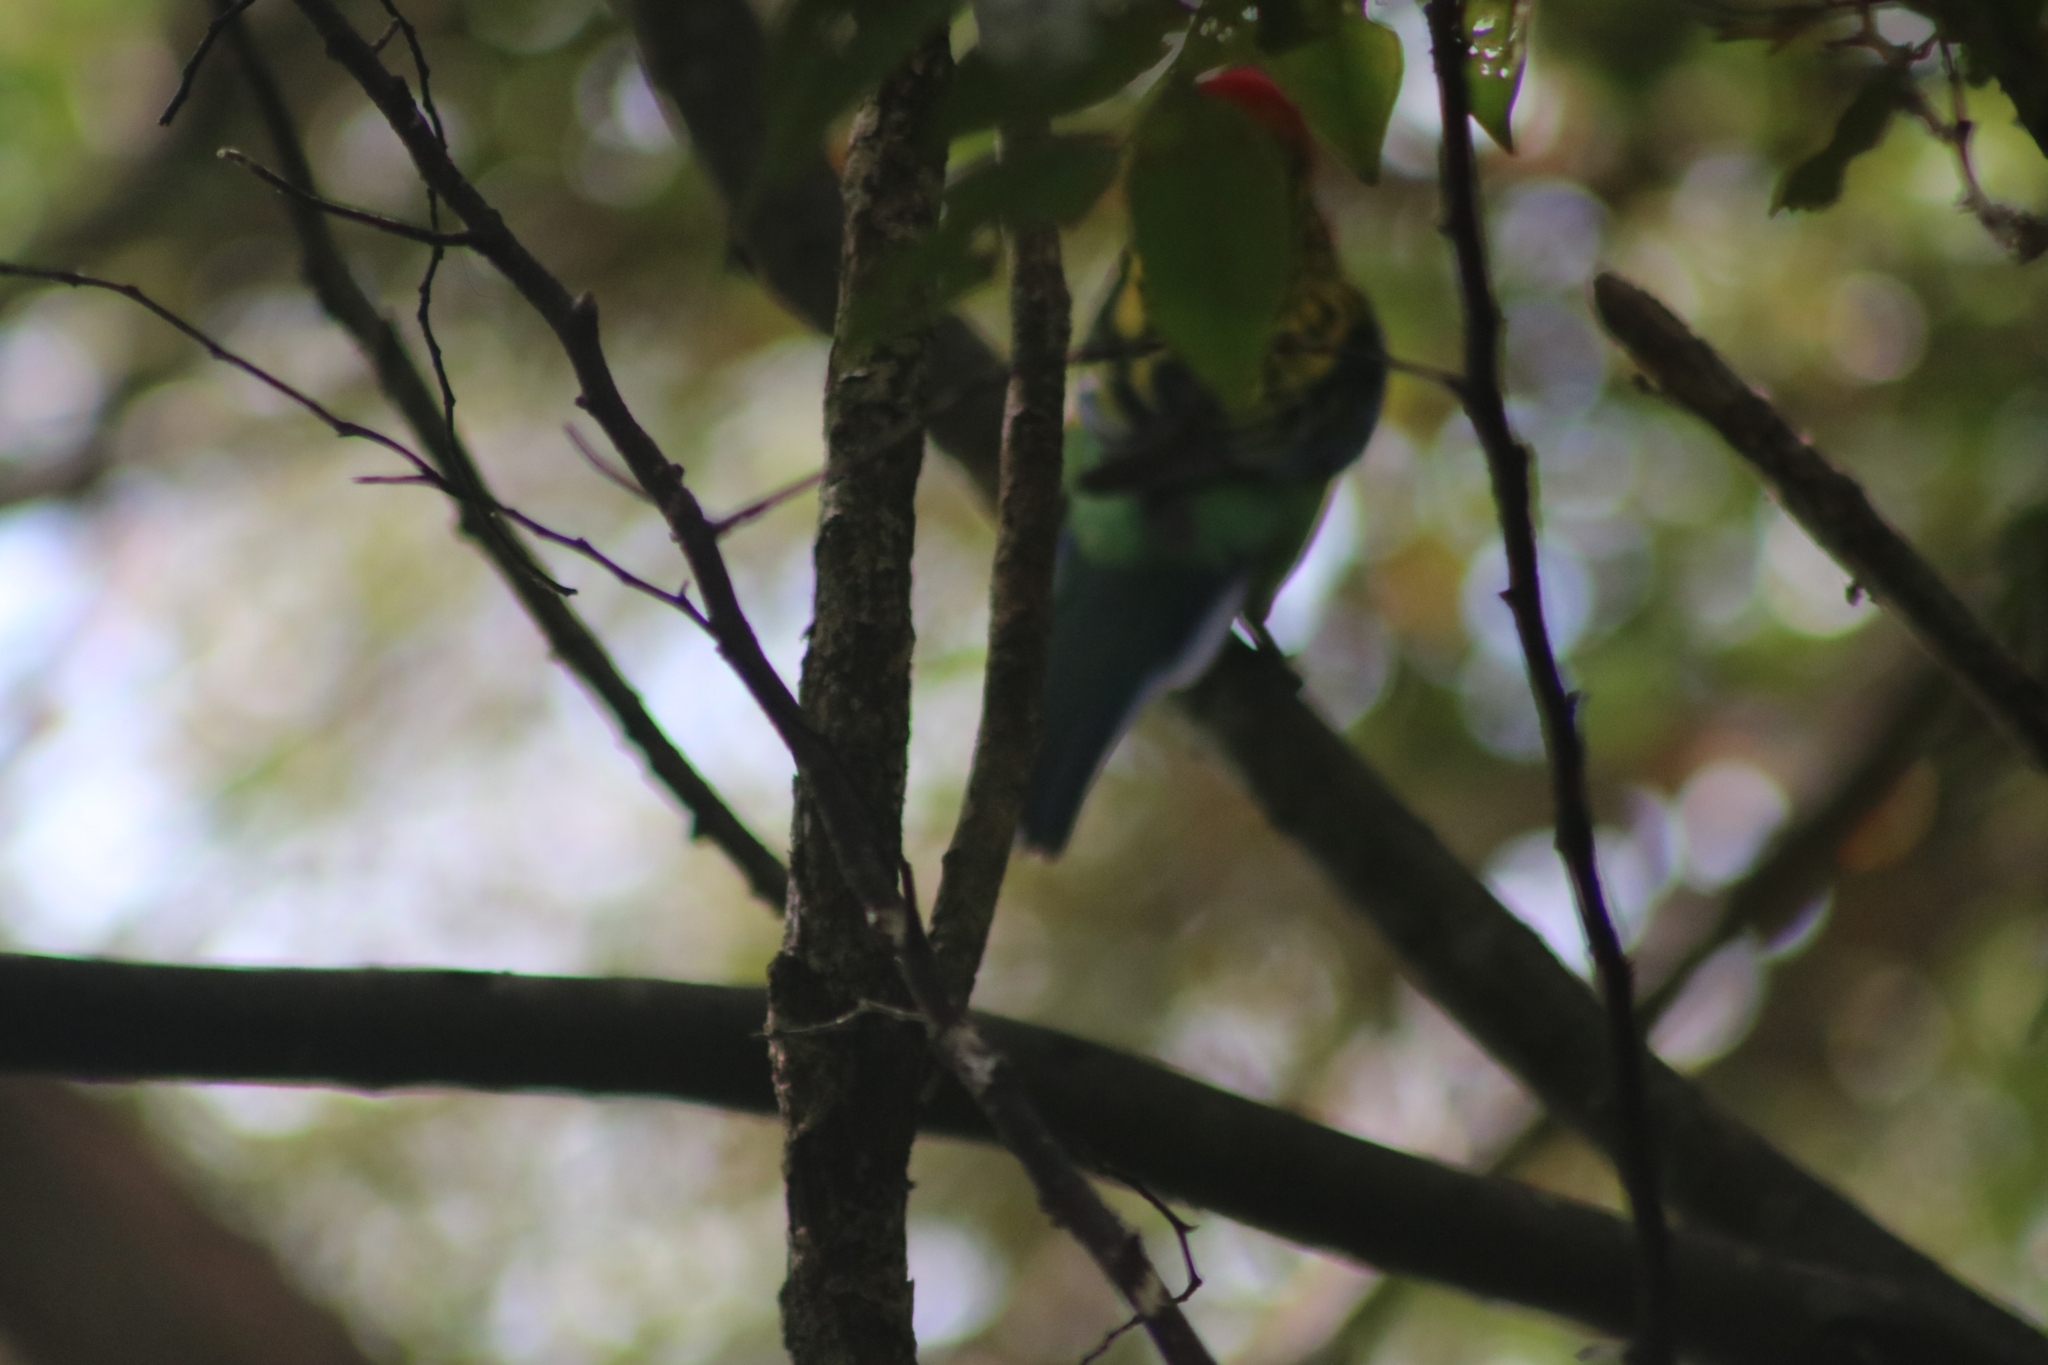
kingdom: Animalia
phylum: Chordata
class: Aves
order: Psittaciformes
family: Psittacidae
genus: Platycercus
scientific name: Platycercus eximius
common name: Eastern rosella
